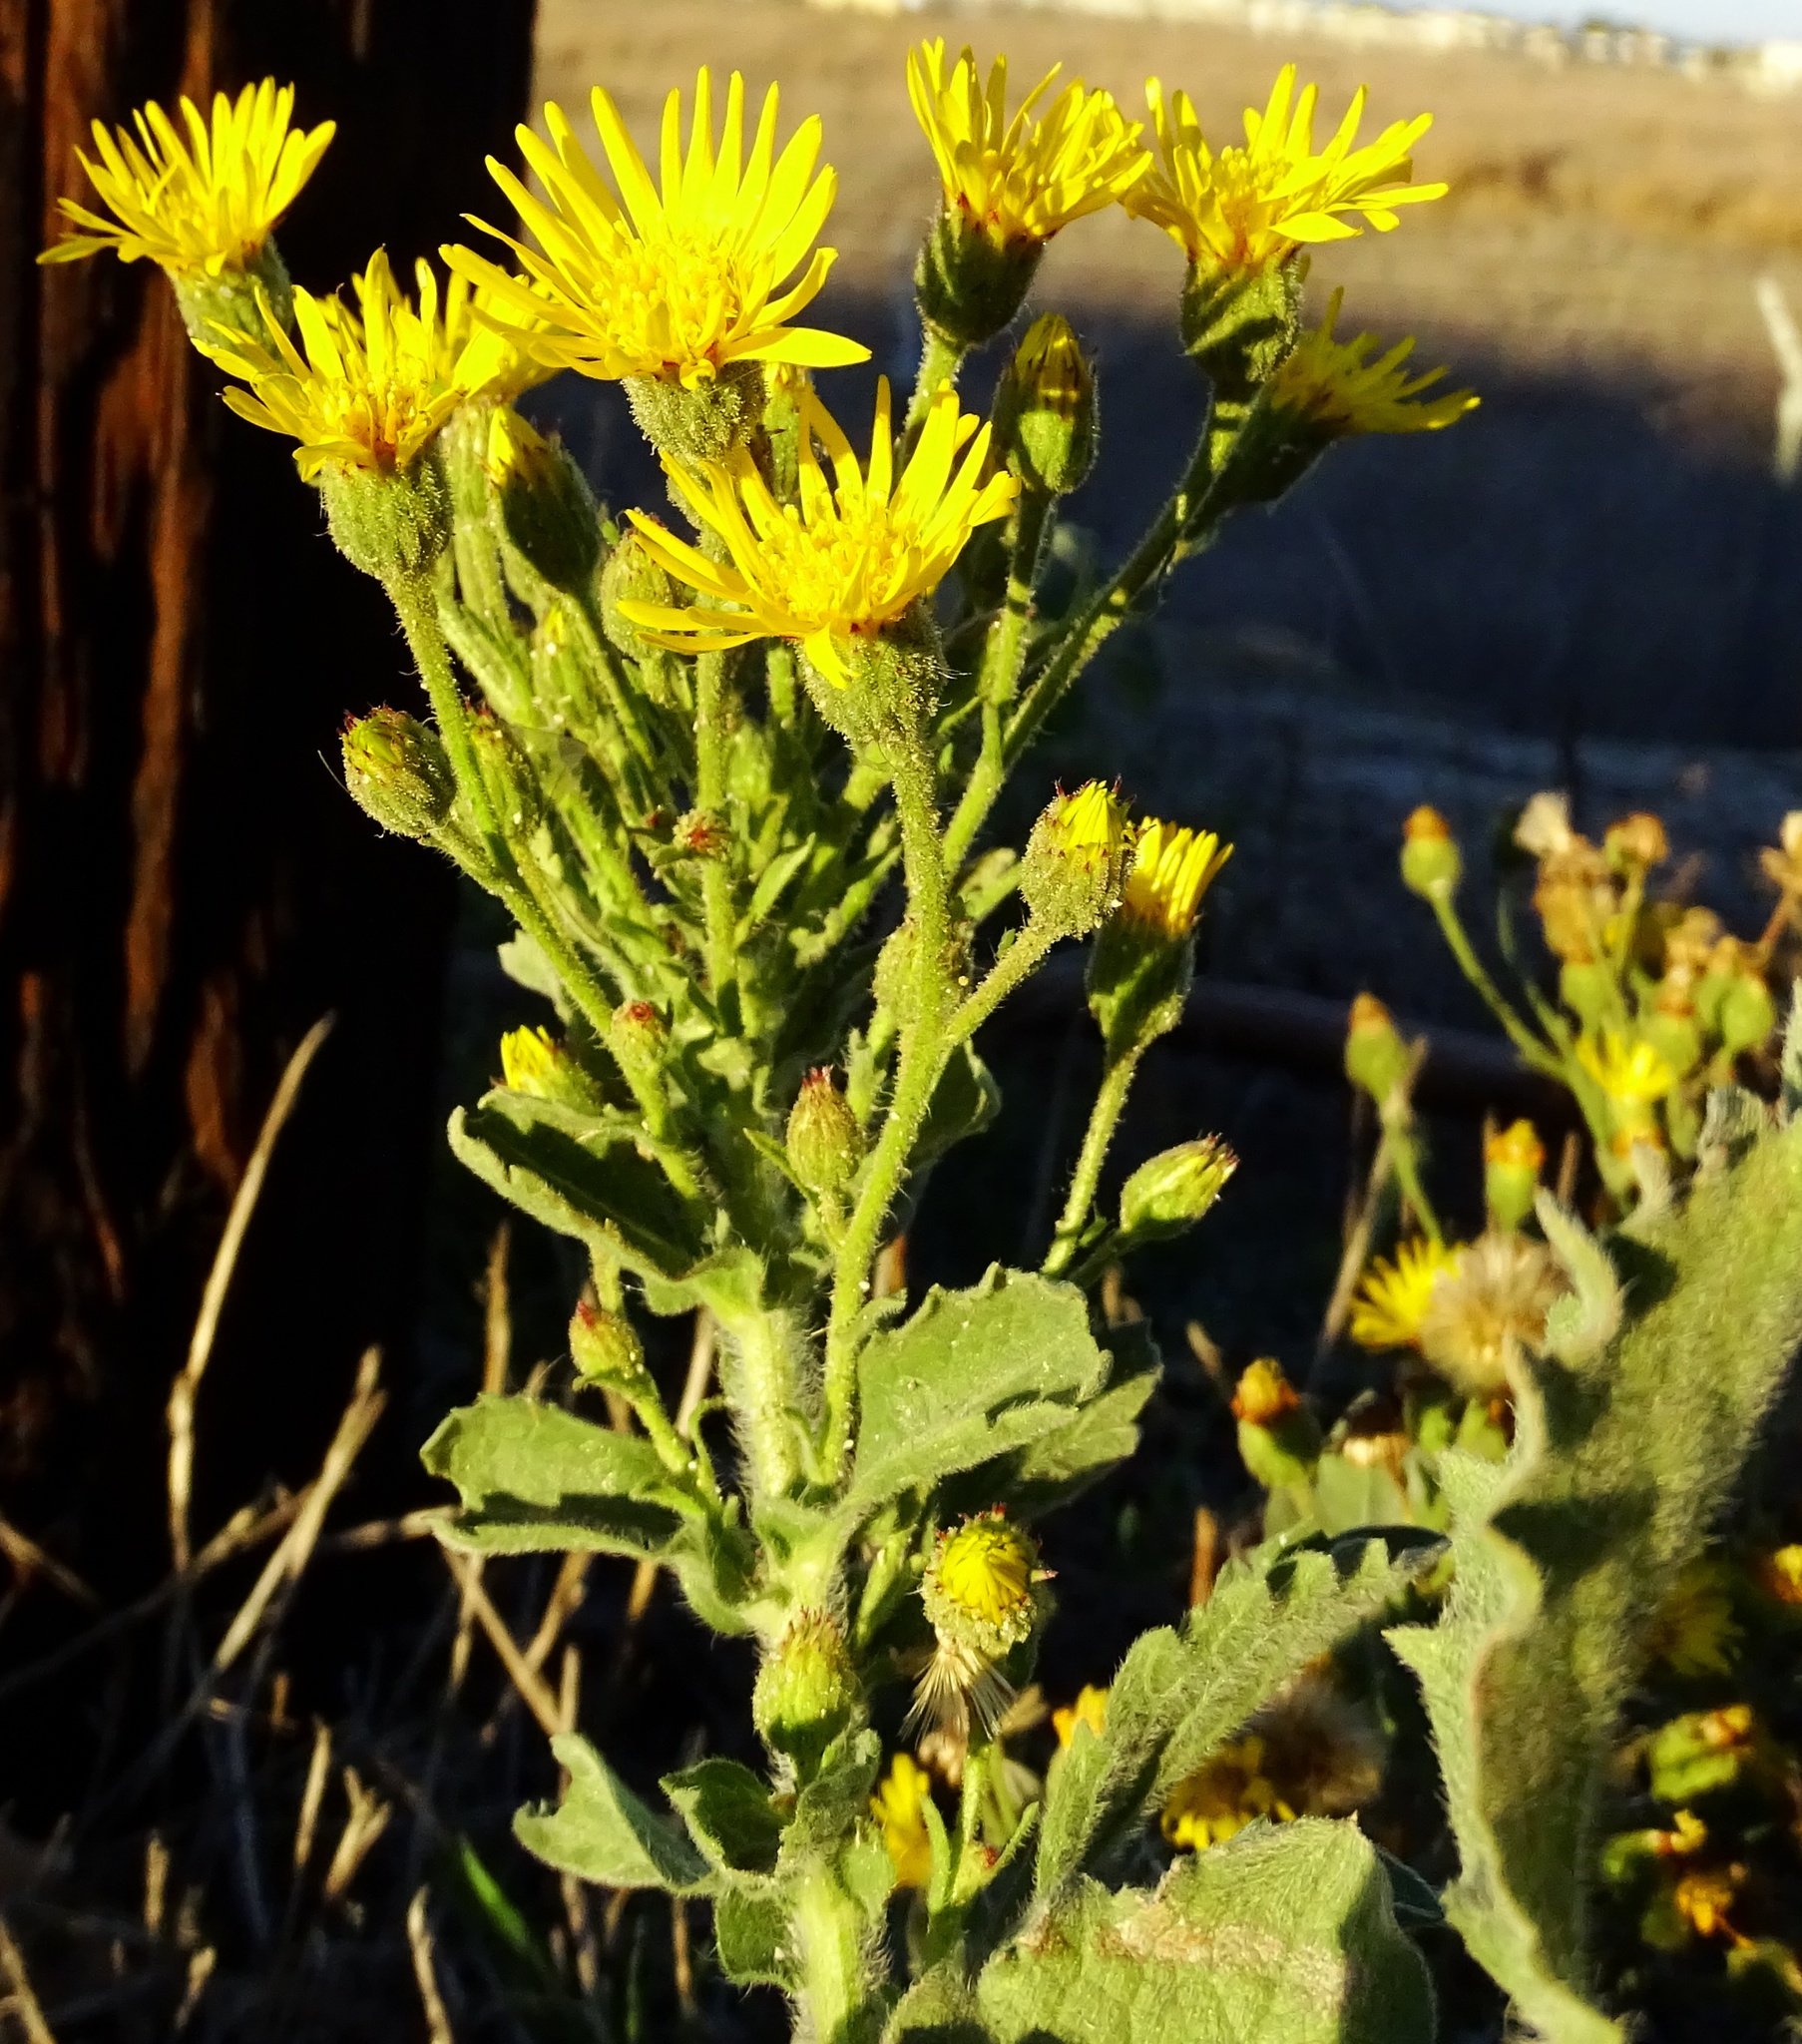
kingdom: Plantae
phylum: Tracheophyta
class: Magnoliopsida
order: Asterales
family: Asteraceae
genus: Heterotheca
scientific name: Heterotheca grandiflora
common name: Telegraphweed
